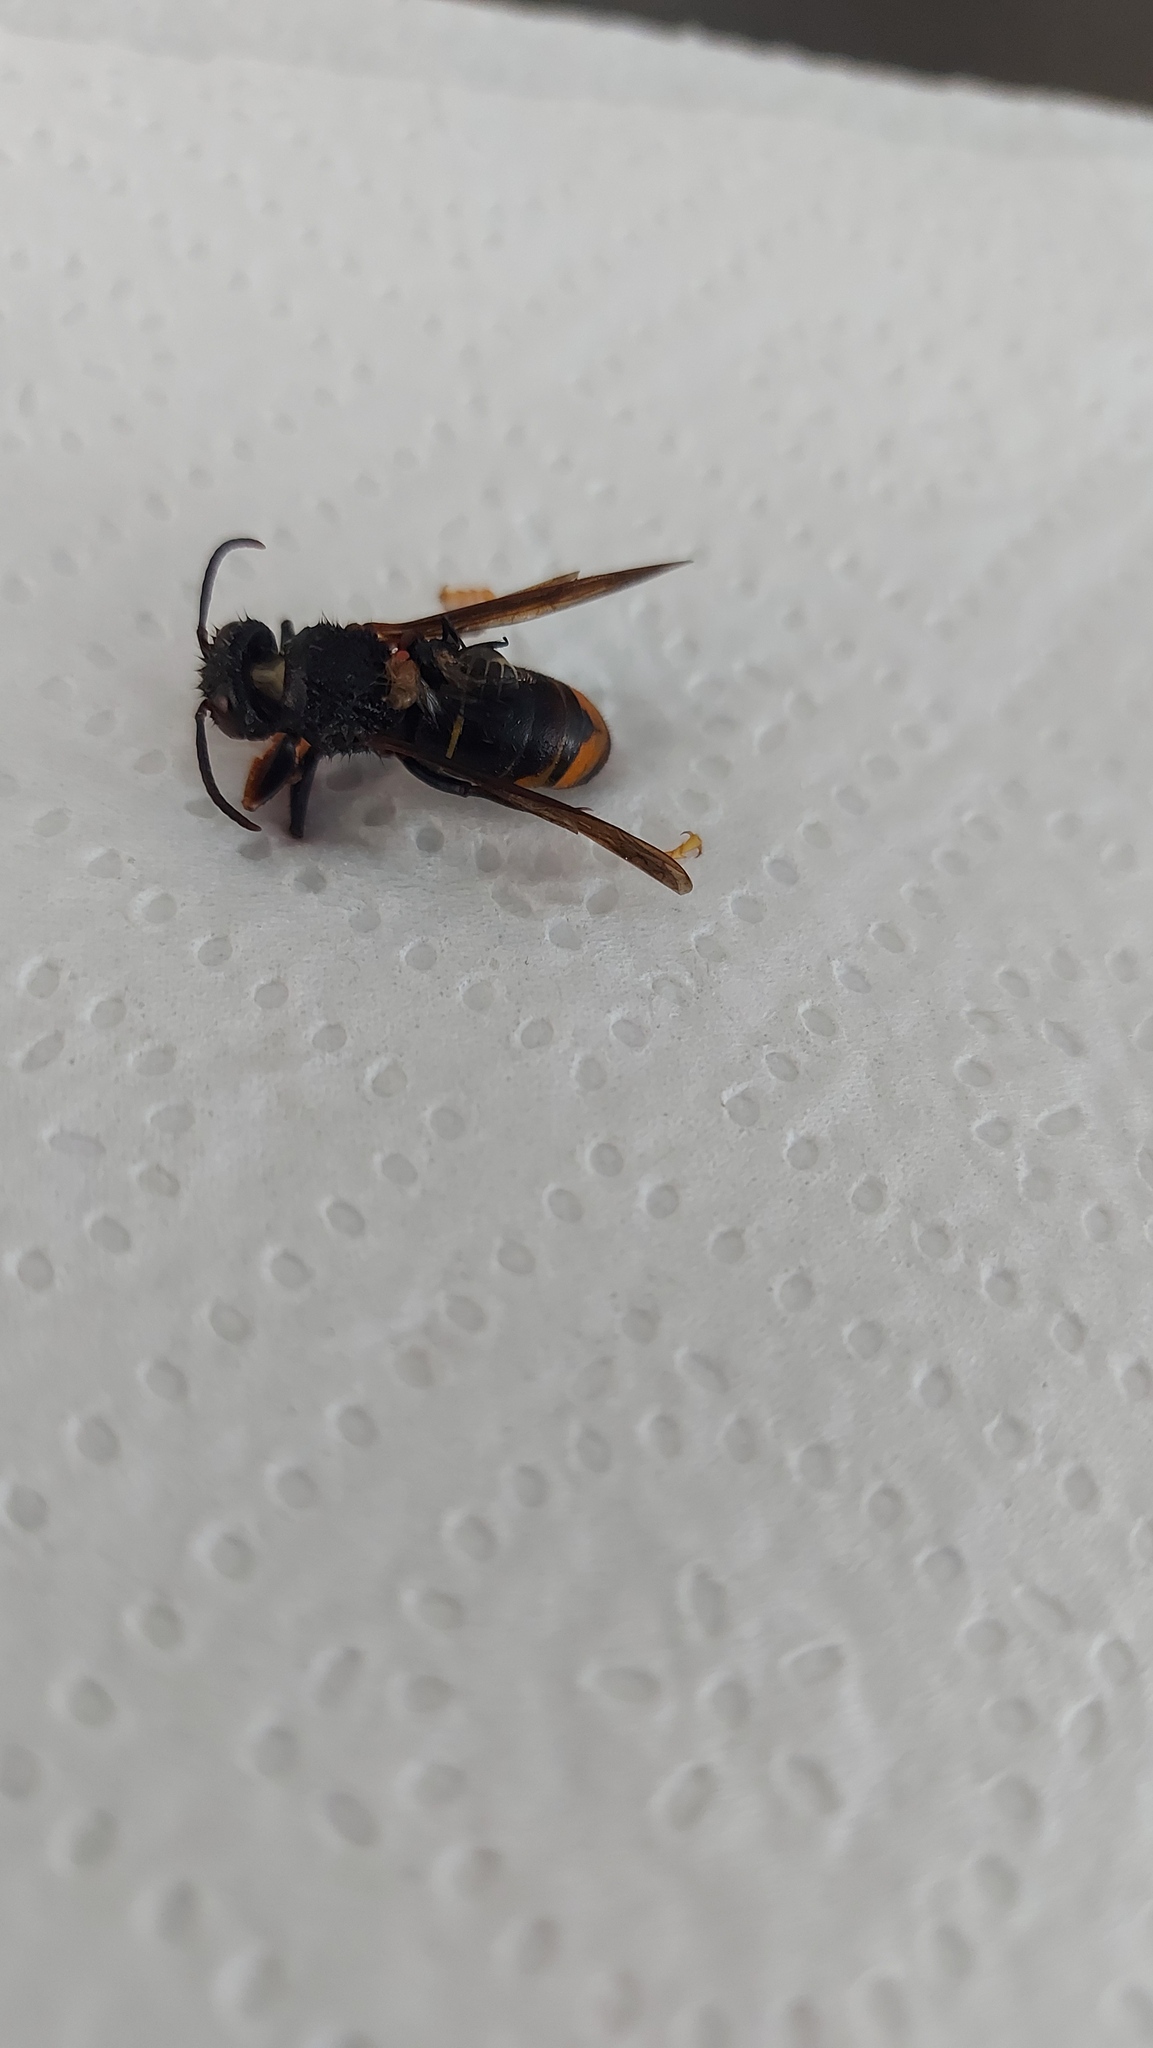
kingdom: Animalia
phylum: Arthropoda
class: Insecta
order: Hymenoptera
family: Vespidae
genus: Vespa
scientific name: Vespa velutina
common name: Asian hornet
